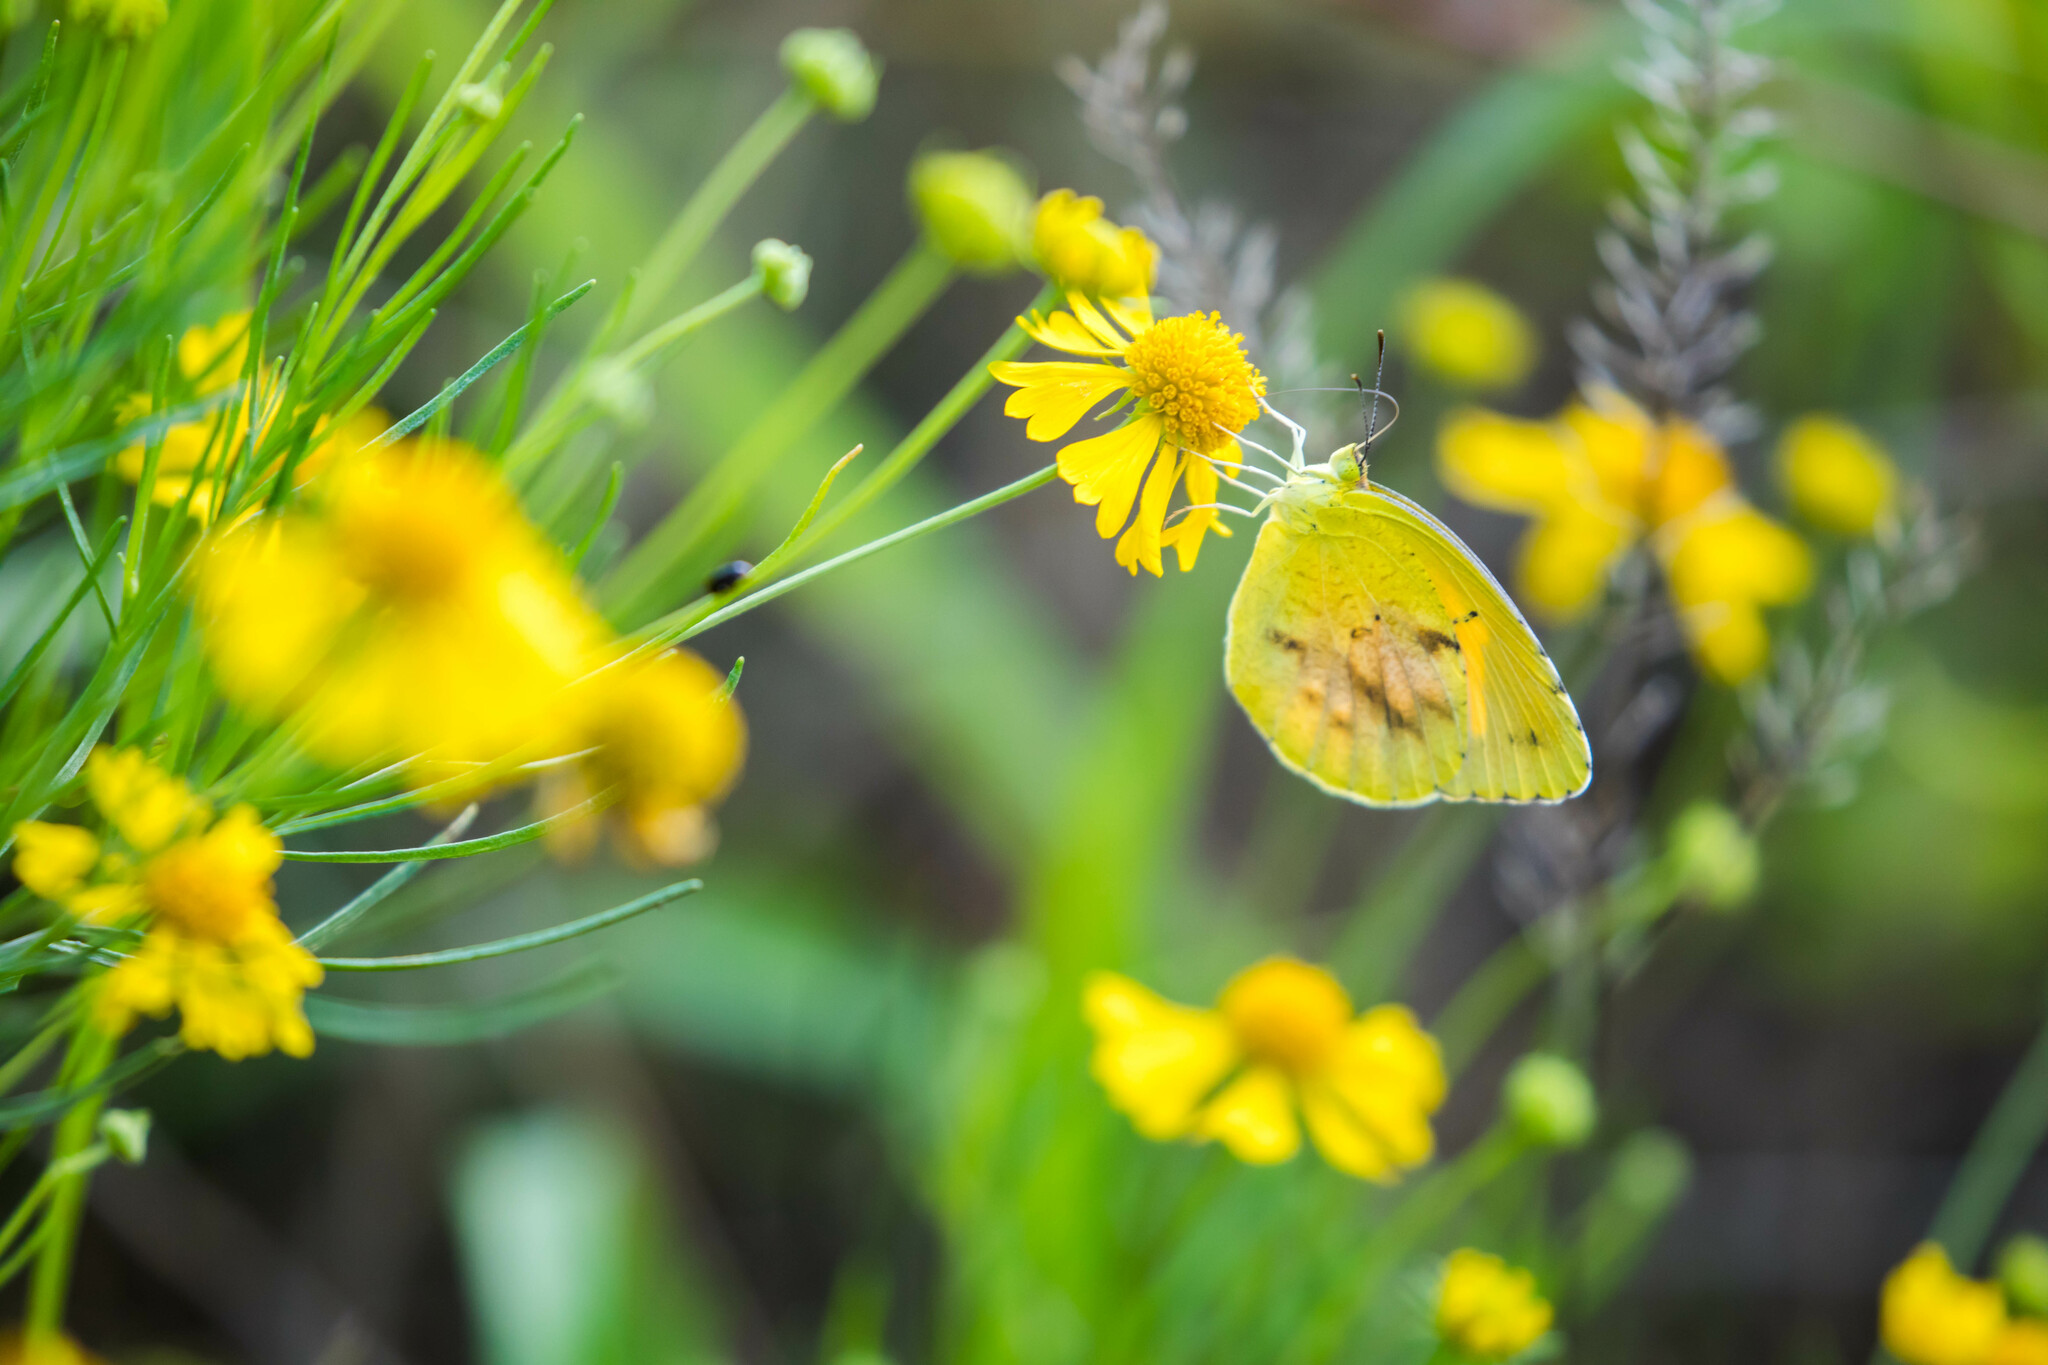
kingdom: Animalia
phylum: Arthropoda
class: Insecta
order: Lepidoptera
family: Pieridae
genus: Abaeis
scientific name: Abaeis nicippe
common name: Sleepy orange
